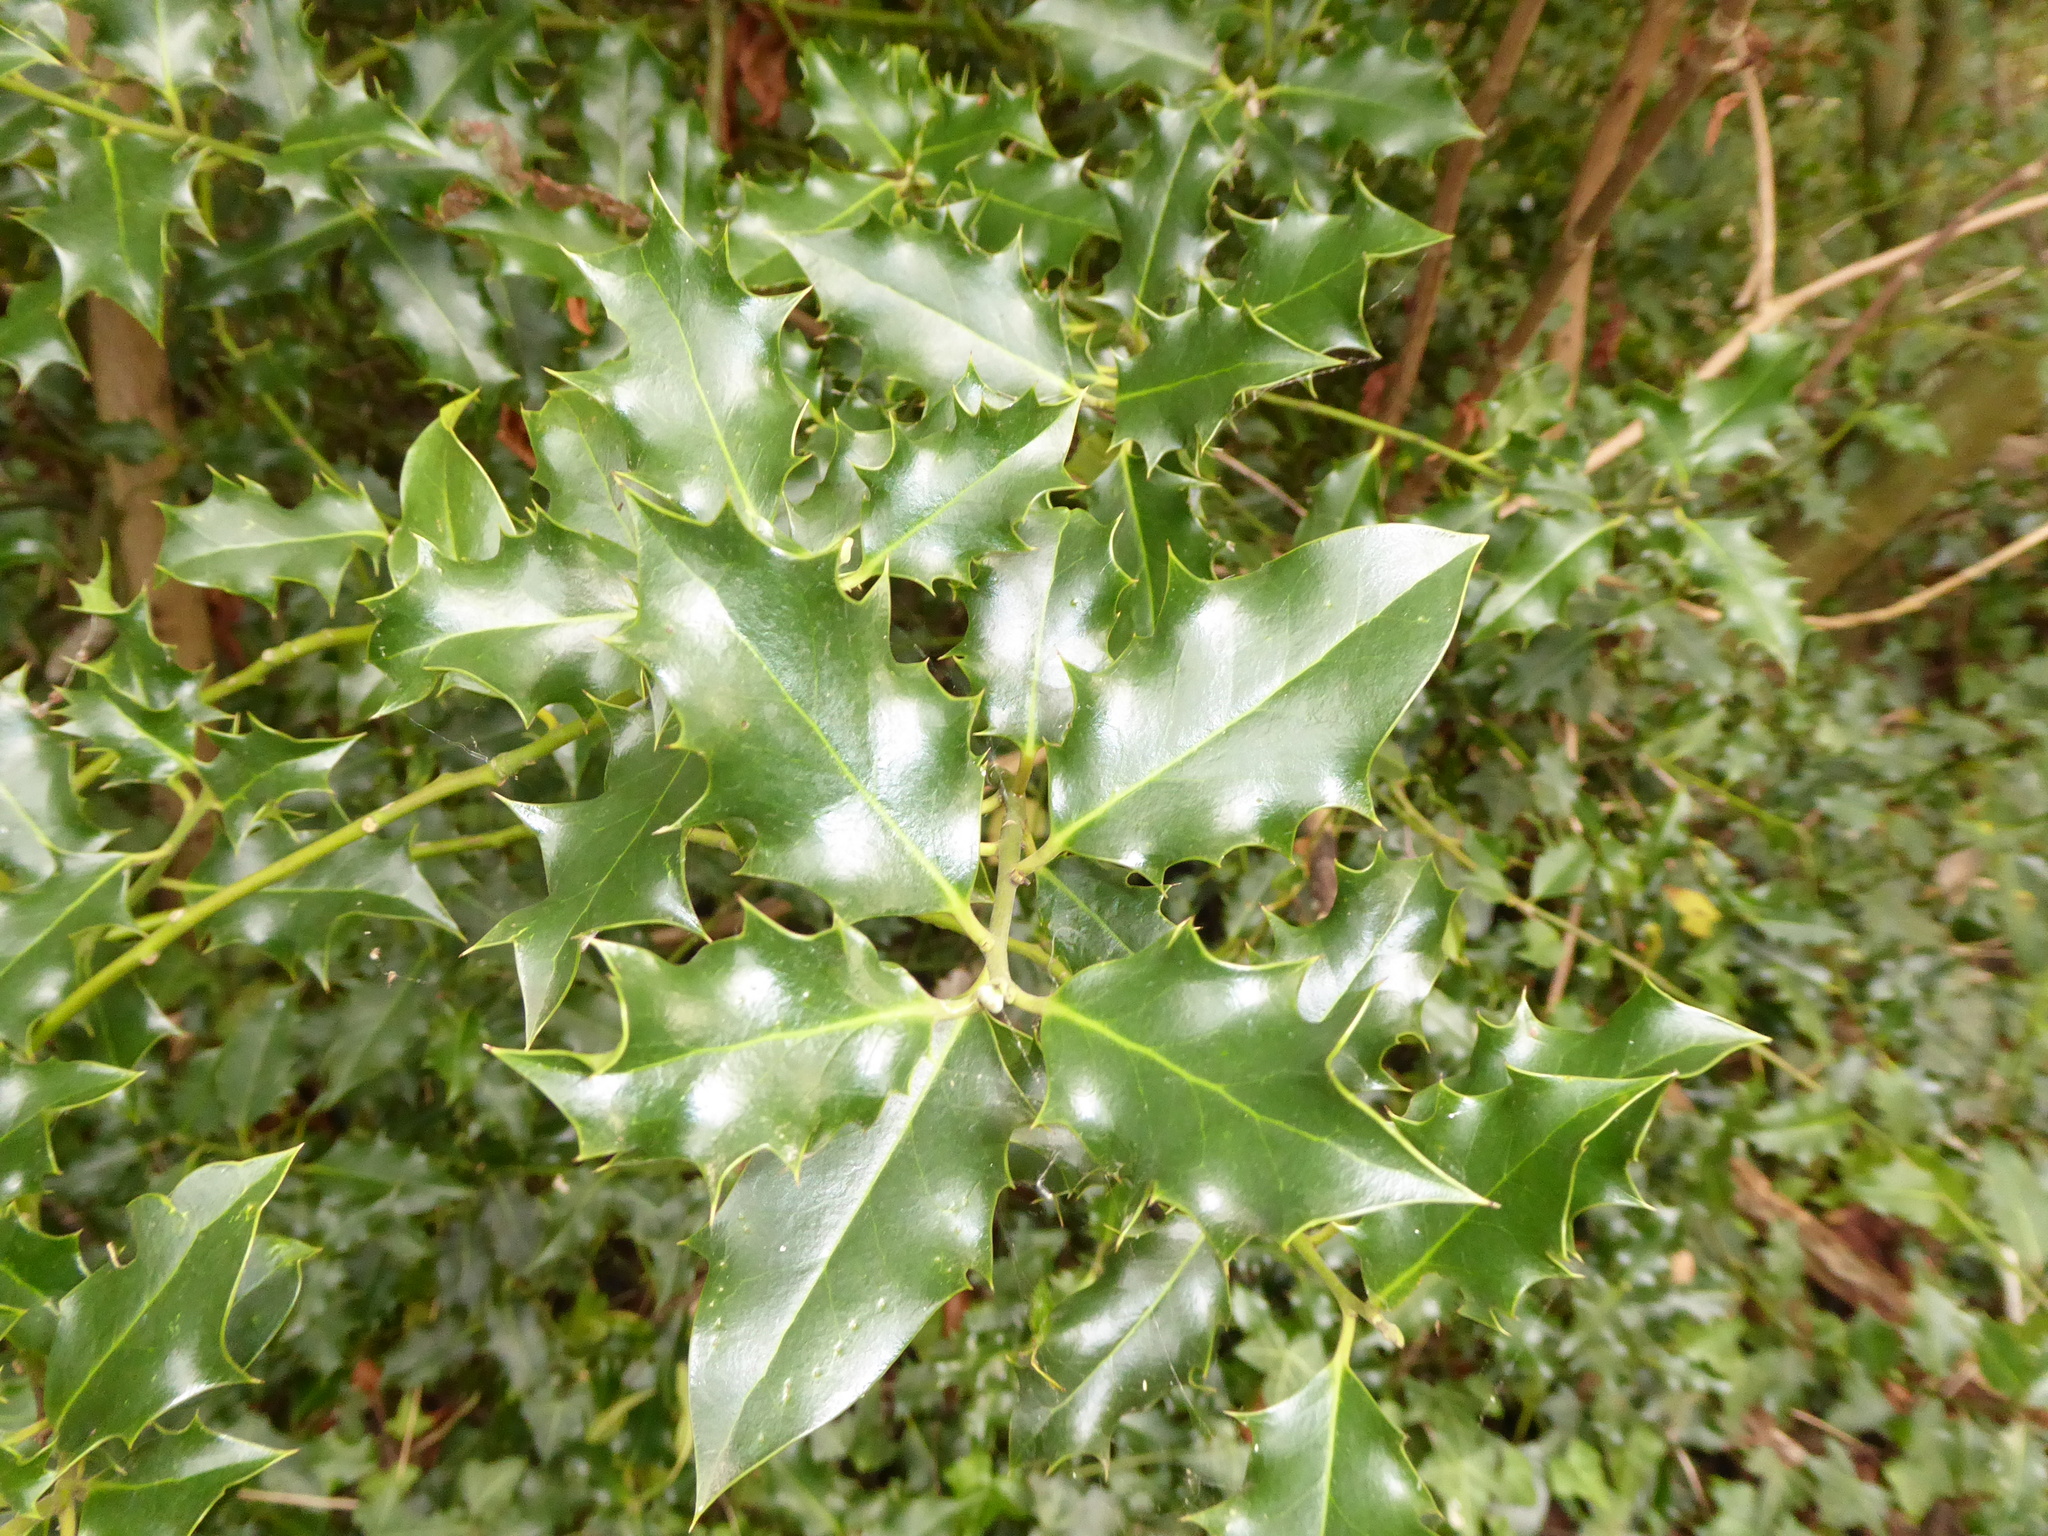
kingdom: Plantae
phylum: Tracheophyta
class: Magnoliopsida
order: Aquifoliales
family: Aquifoliaceae
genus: Ilex
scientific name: Ilex aquifolium
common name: English holly
